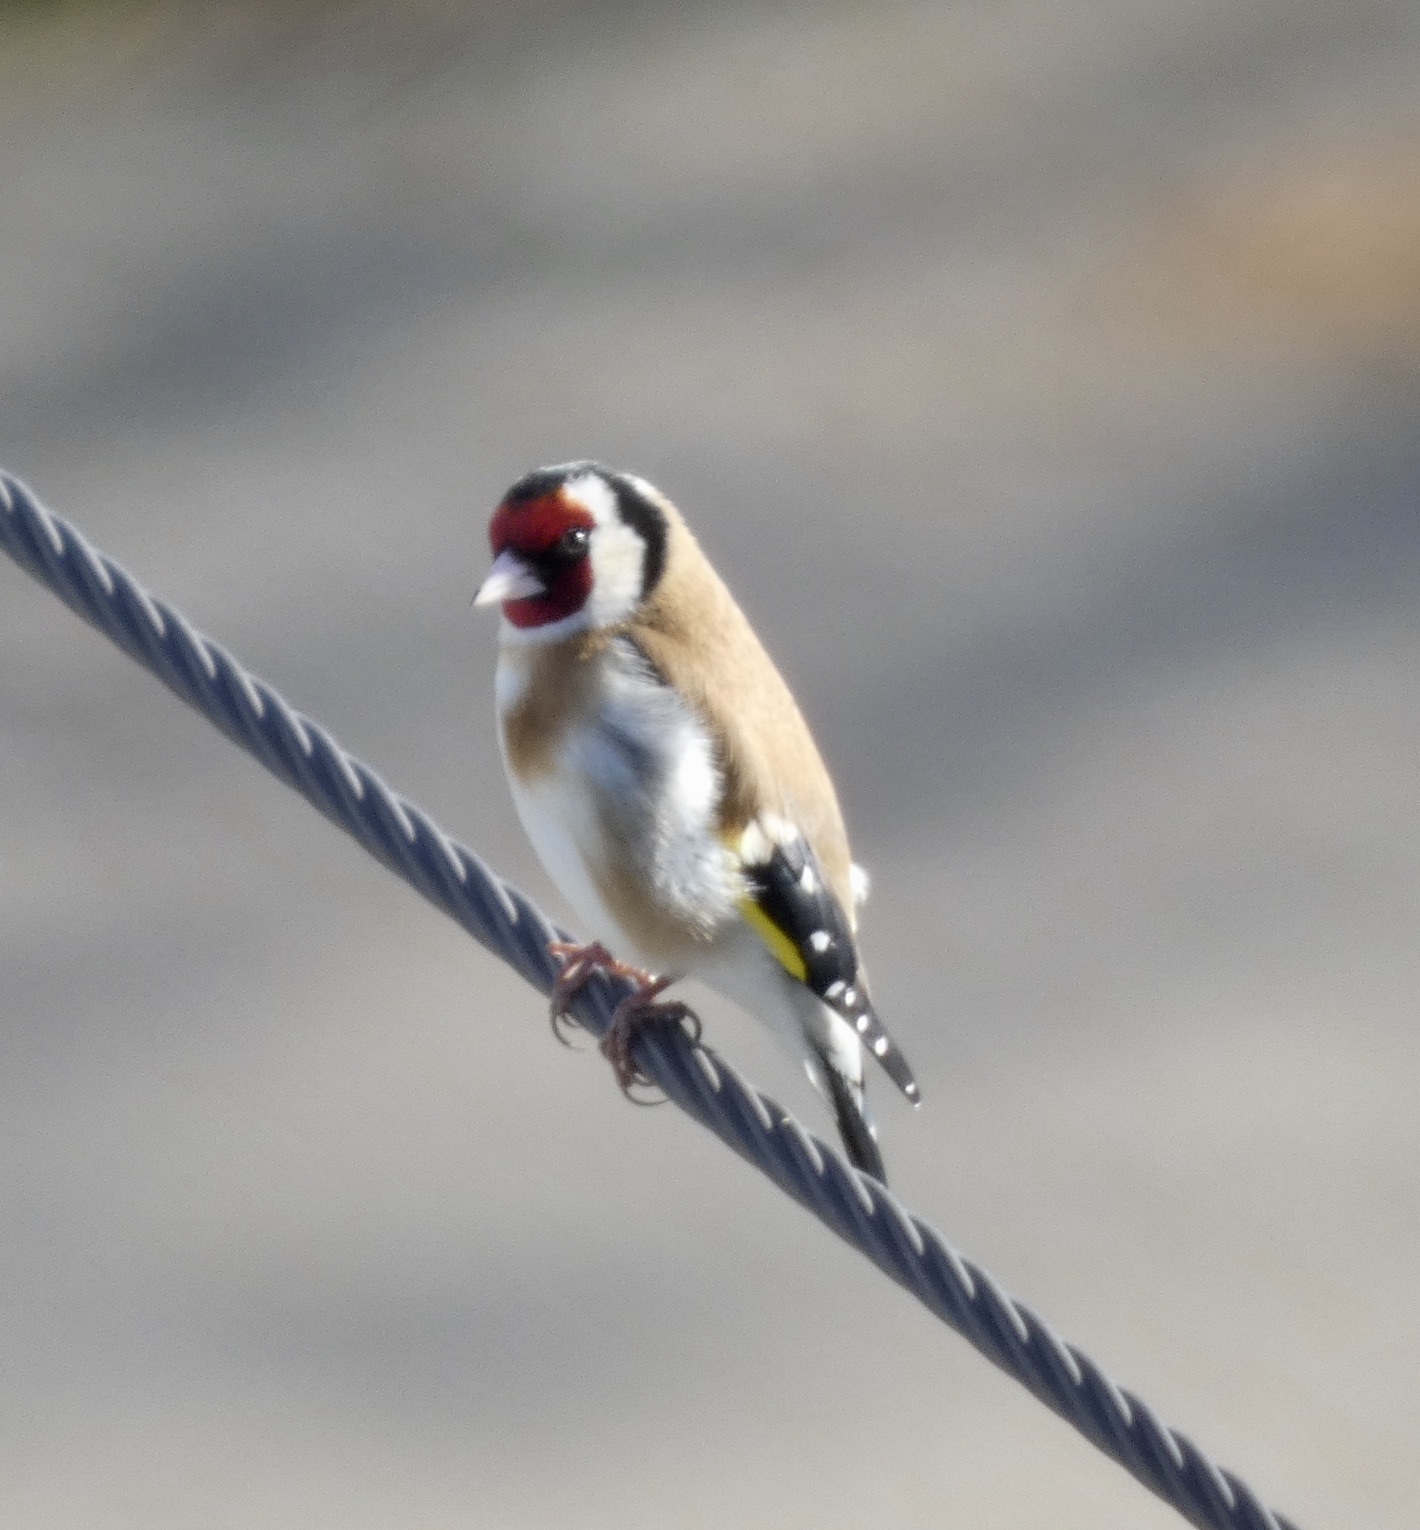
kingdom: Animalia
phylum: Chordata
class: Aves
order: Passeriformes
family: Fringillidae
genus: Carduelis
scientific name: Carduelis carduelis
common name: European goldfinch
